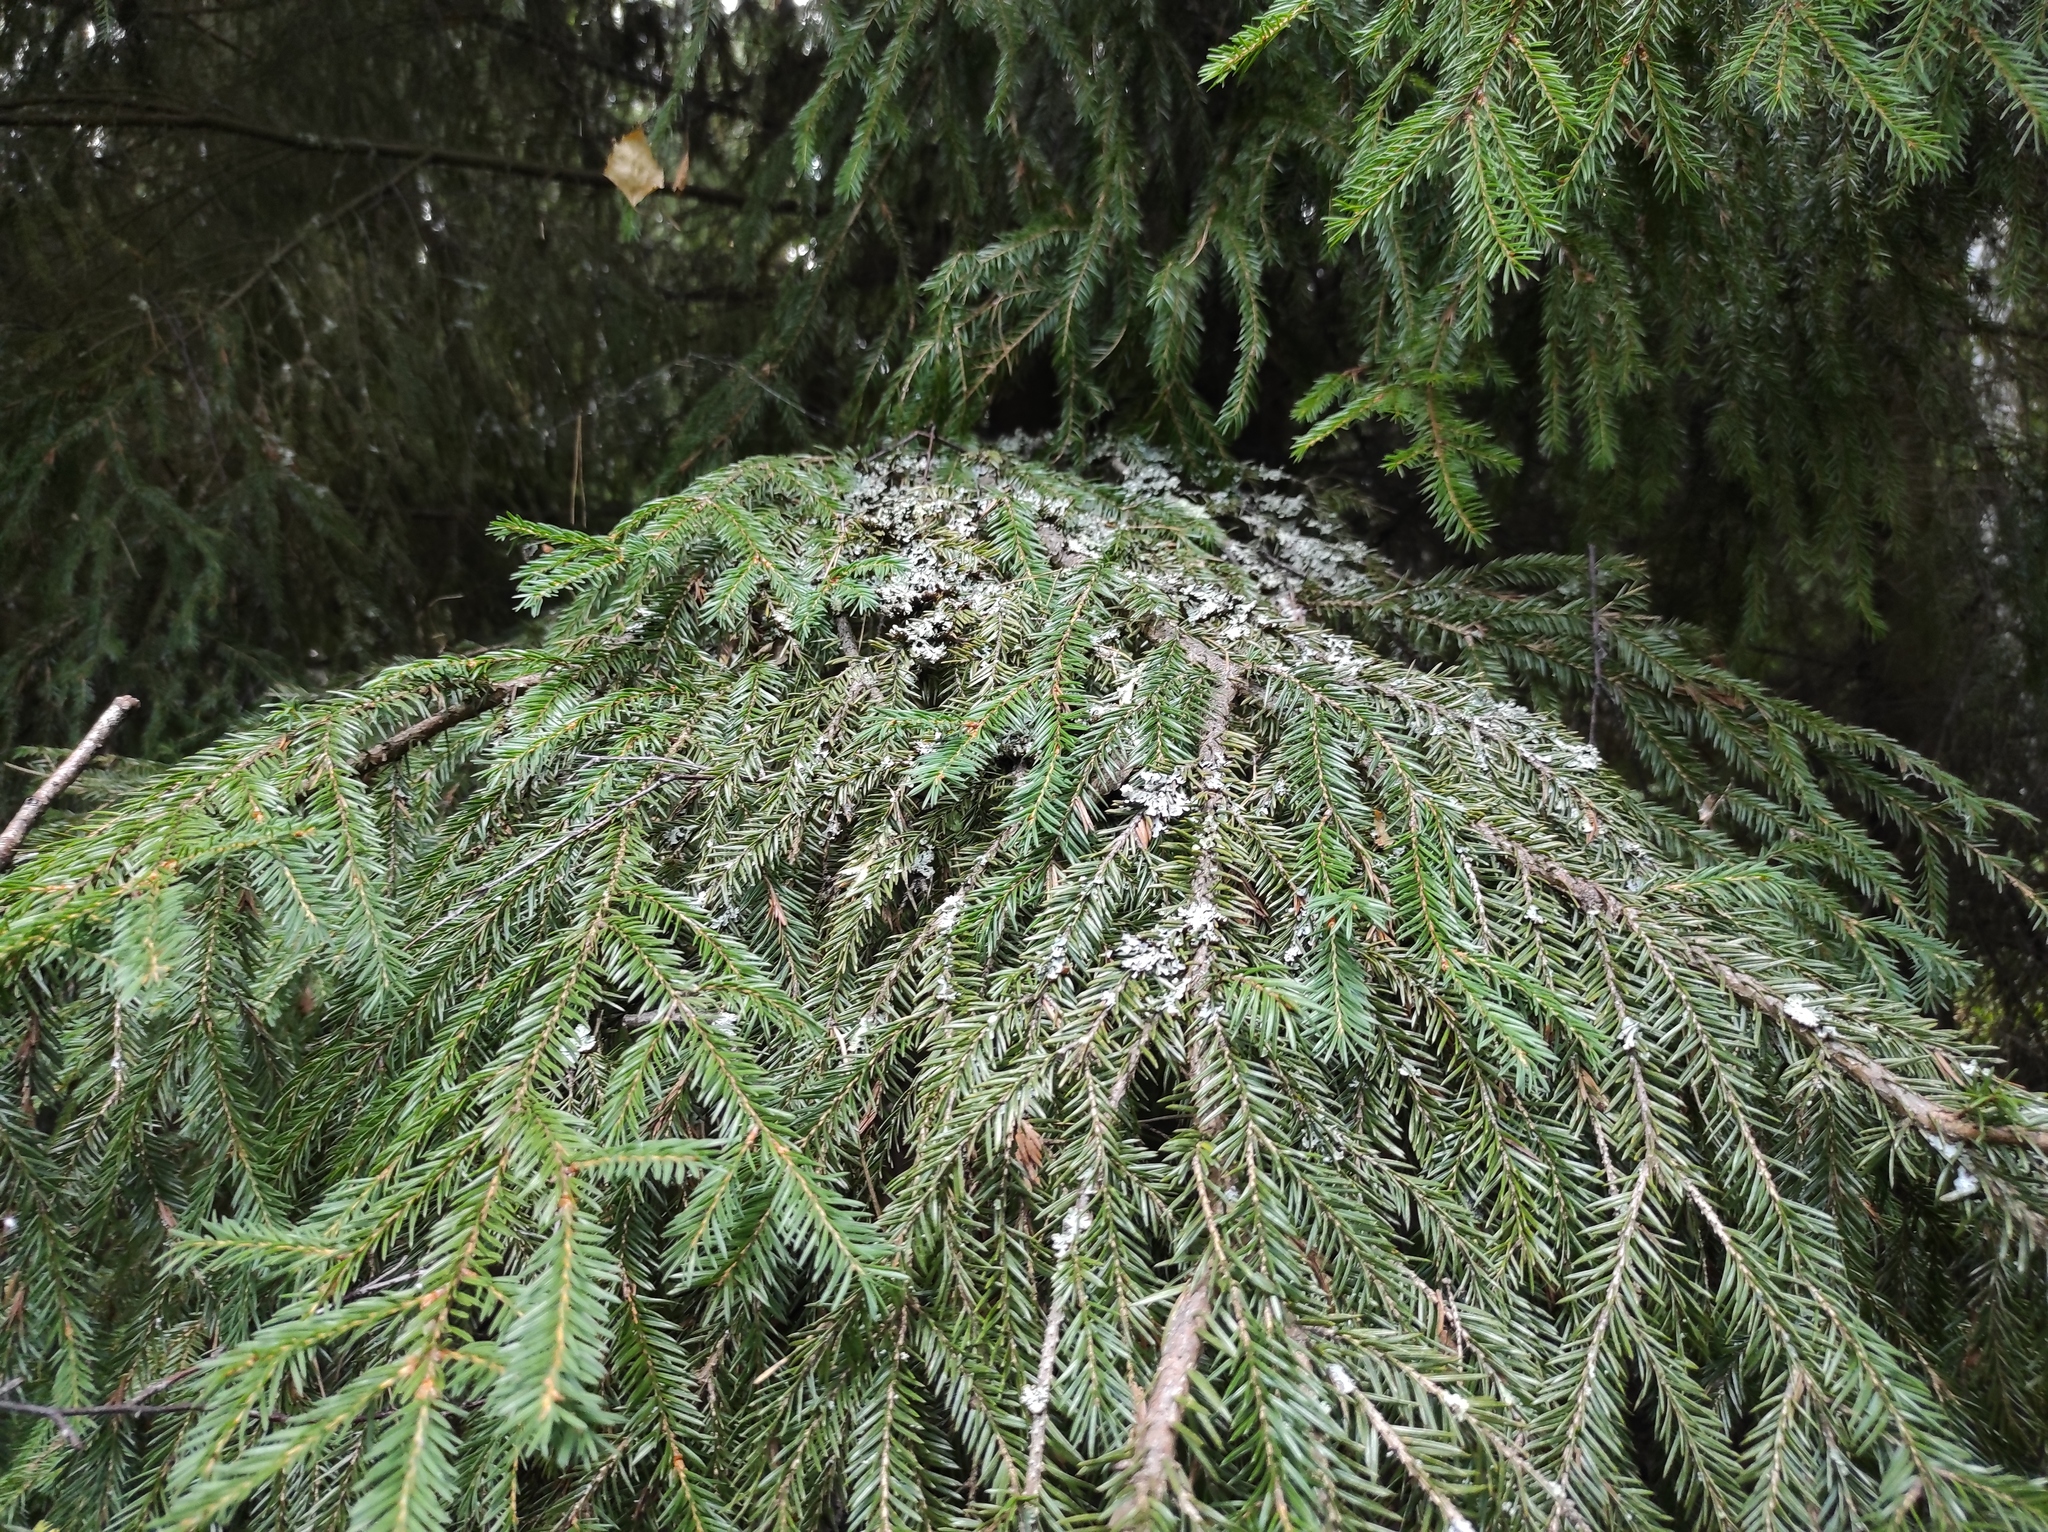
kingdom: Plantae
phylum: Tracheophyta
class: Pinopsida
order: Pinales
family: Pinaceae
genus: Picea
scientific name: Picea obovata
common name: Siberian spruce
